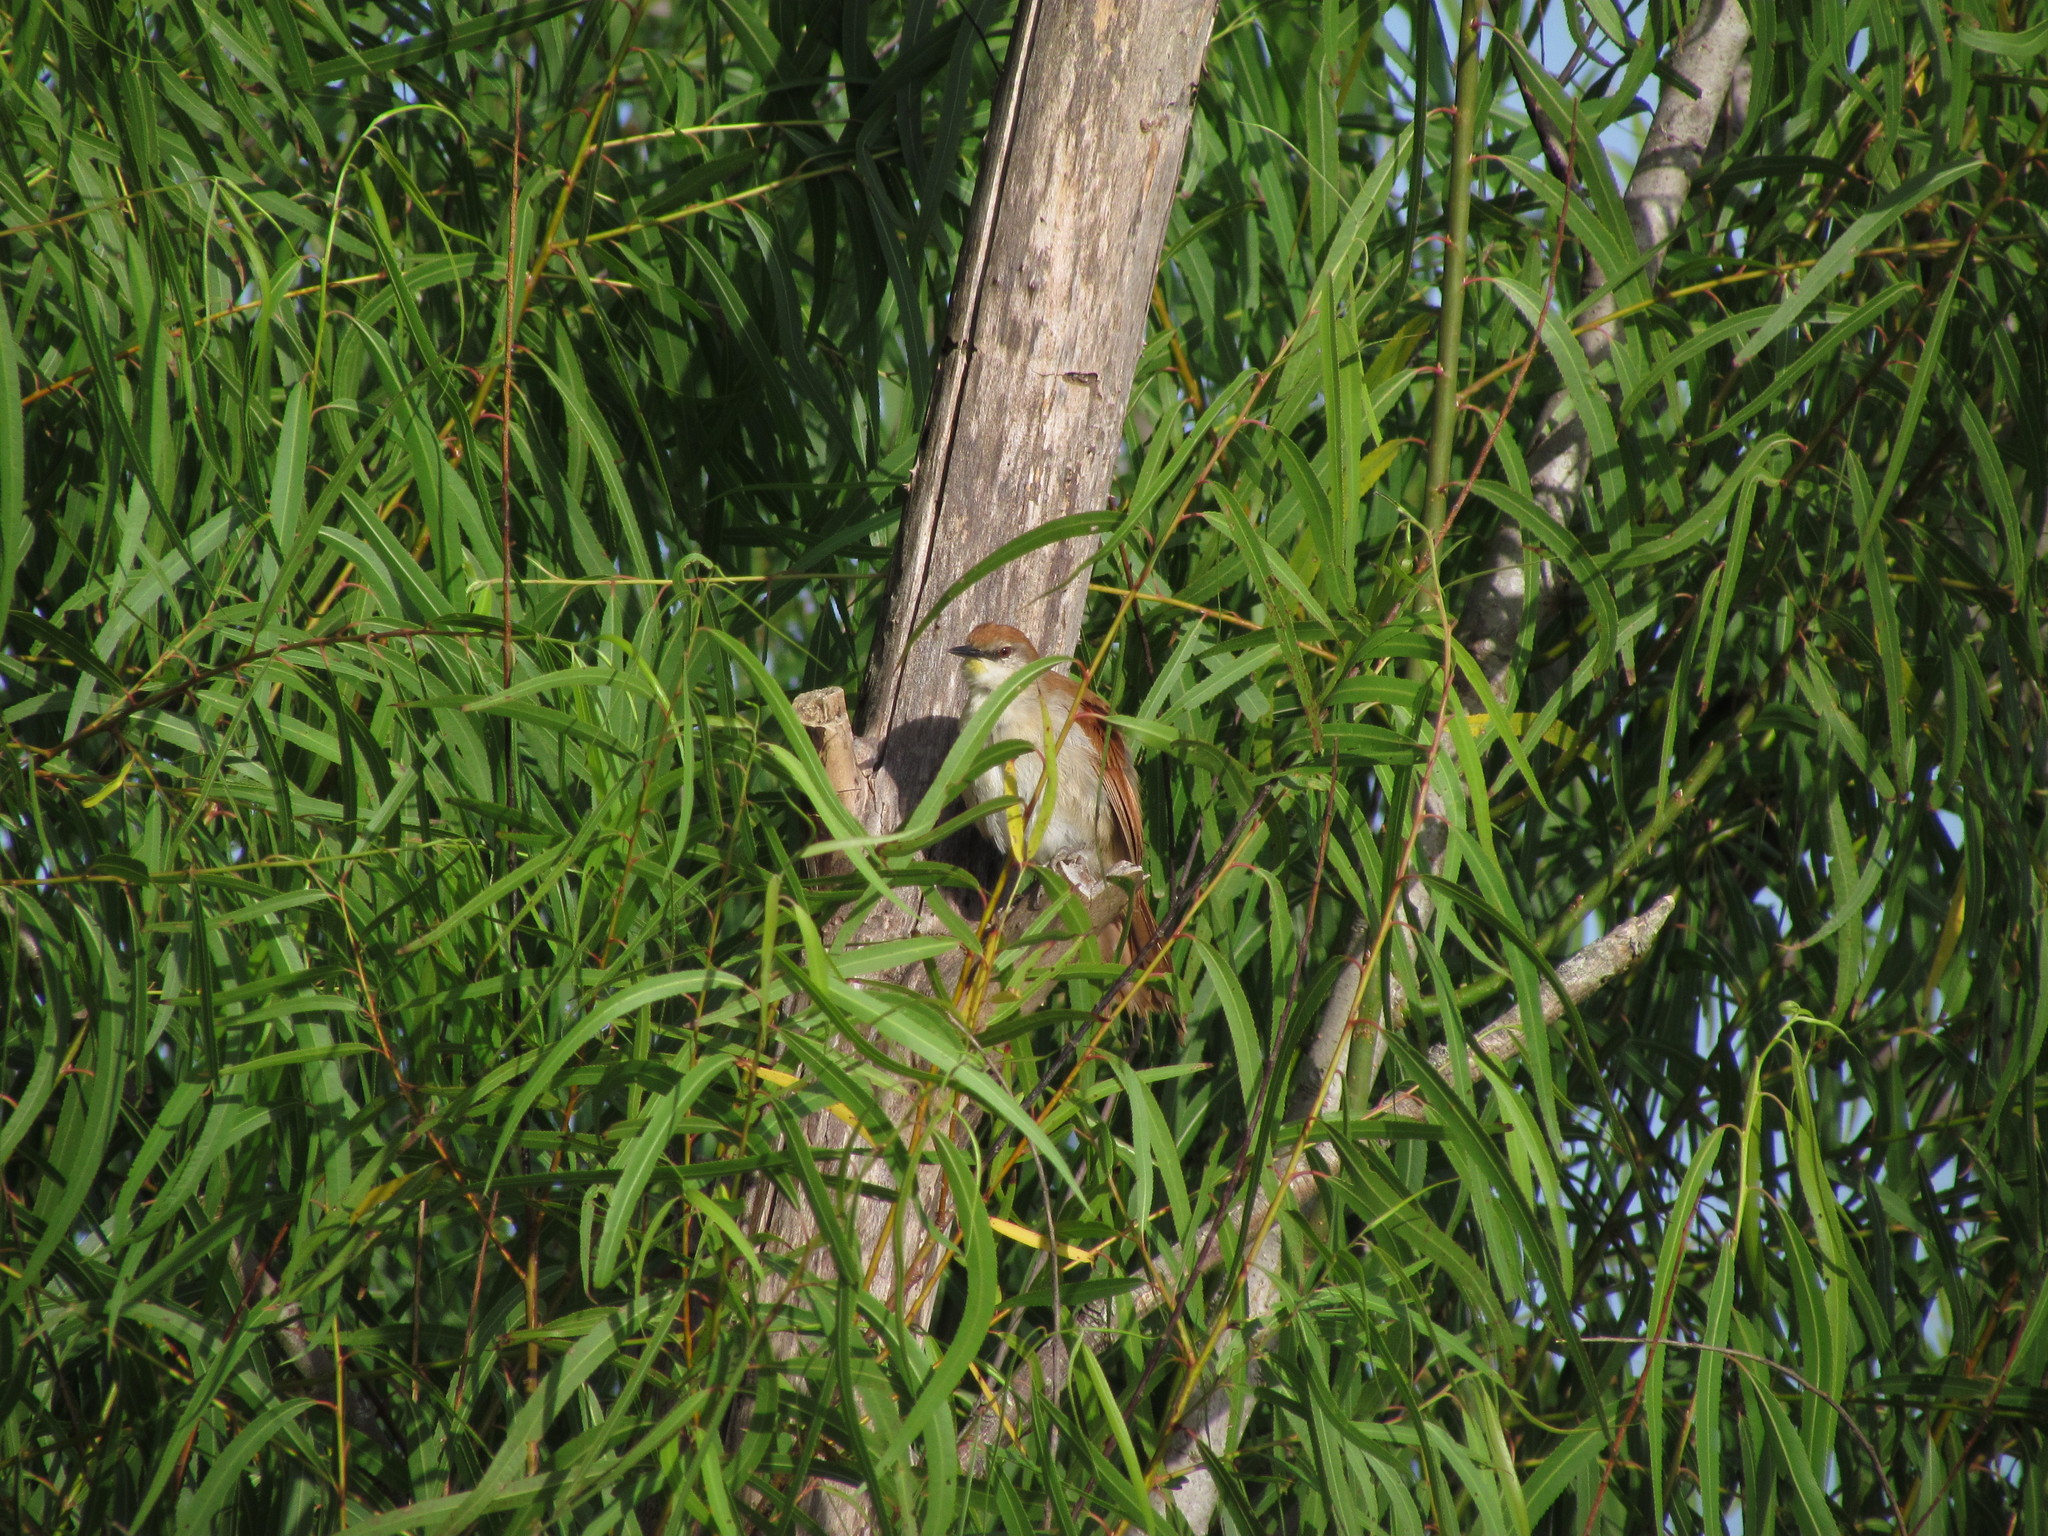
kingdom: Animalia
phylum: Chordata
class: Aves
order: Passeriformes
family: Furnariidae
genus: Certhiaxis
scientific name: Certhiaxis cinnamomeus
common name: Yellow-chinned spinetail
